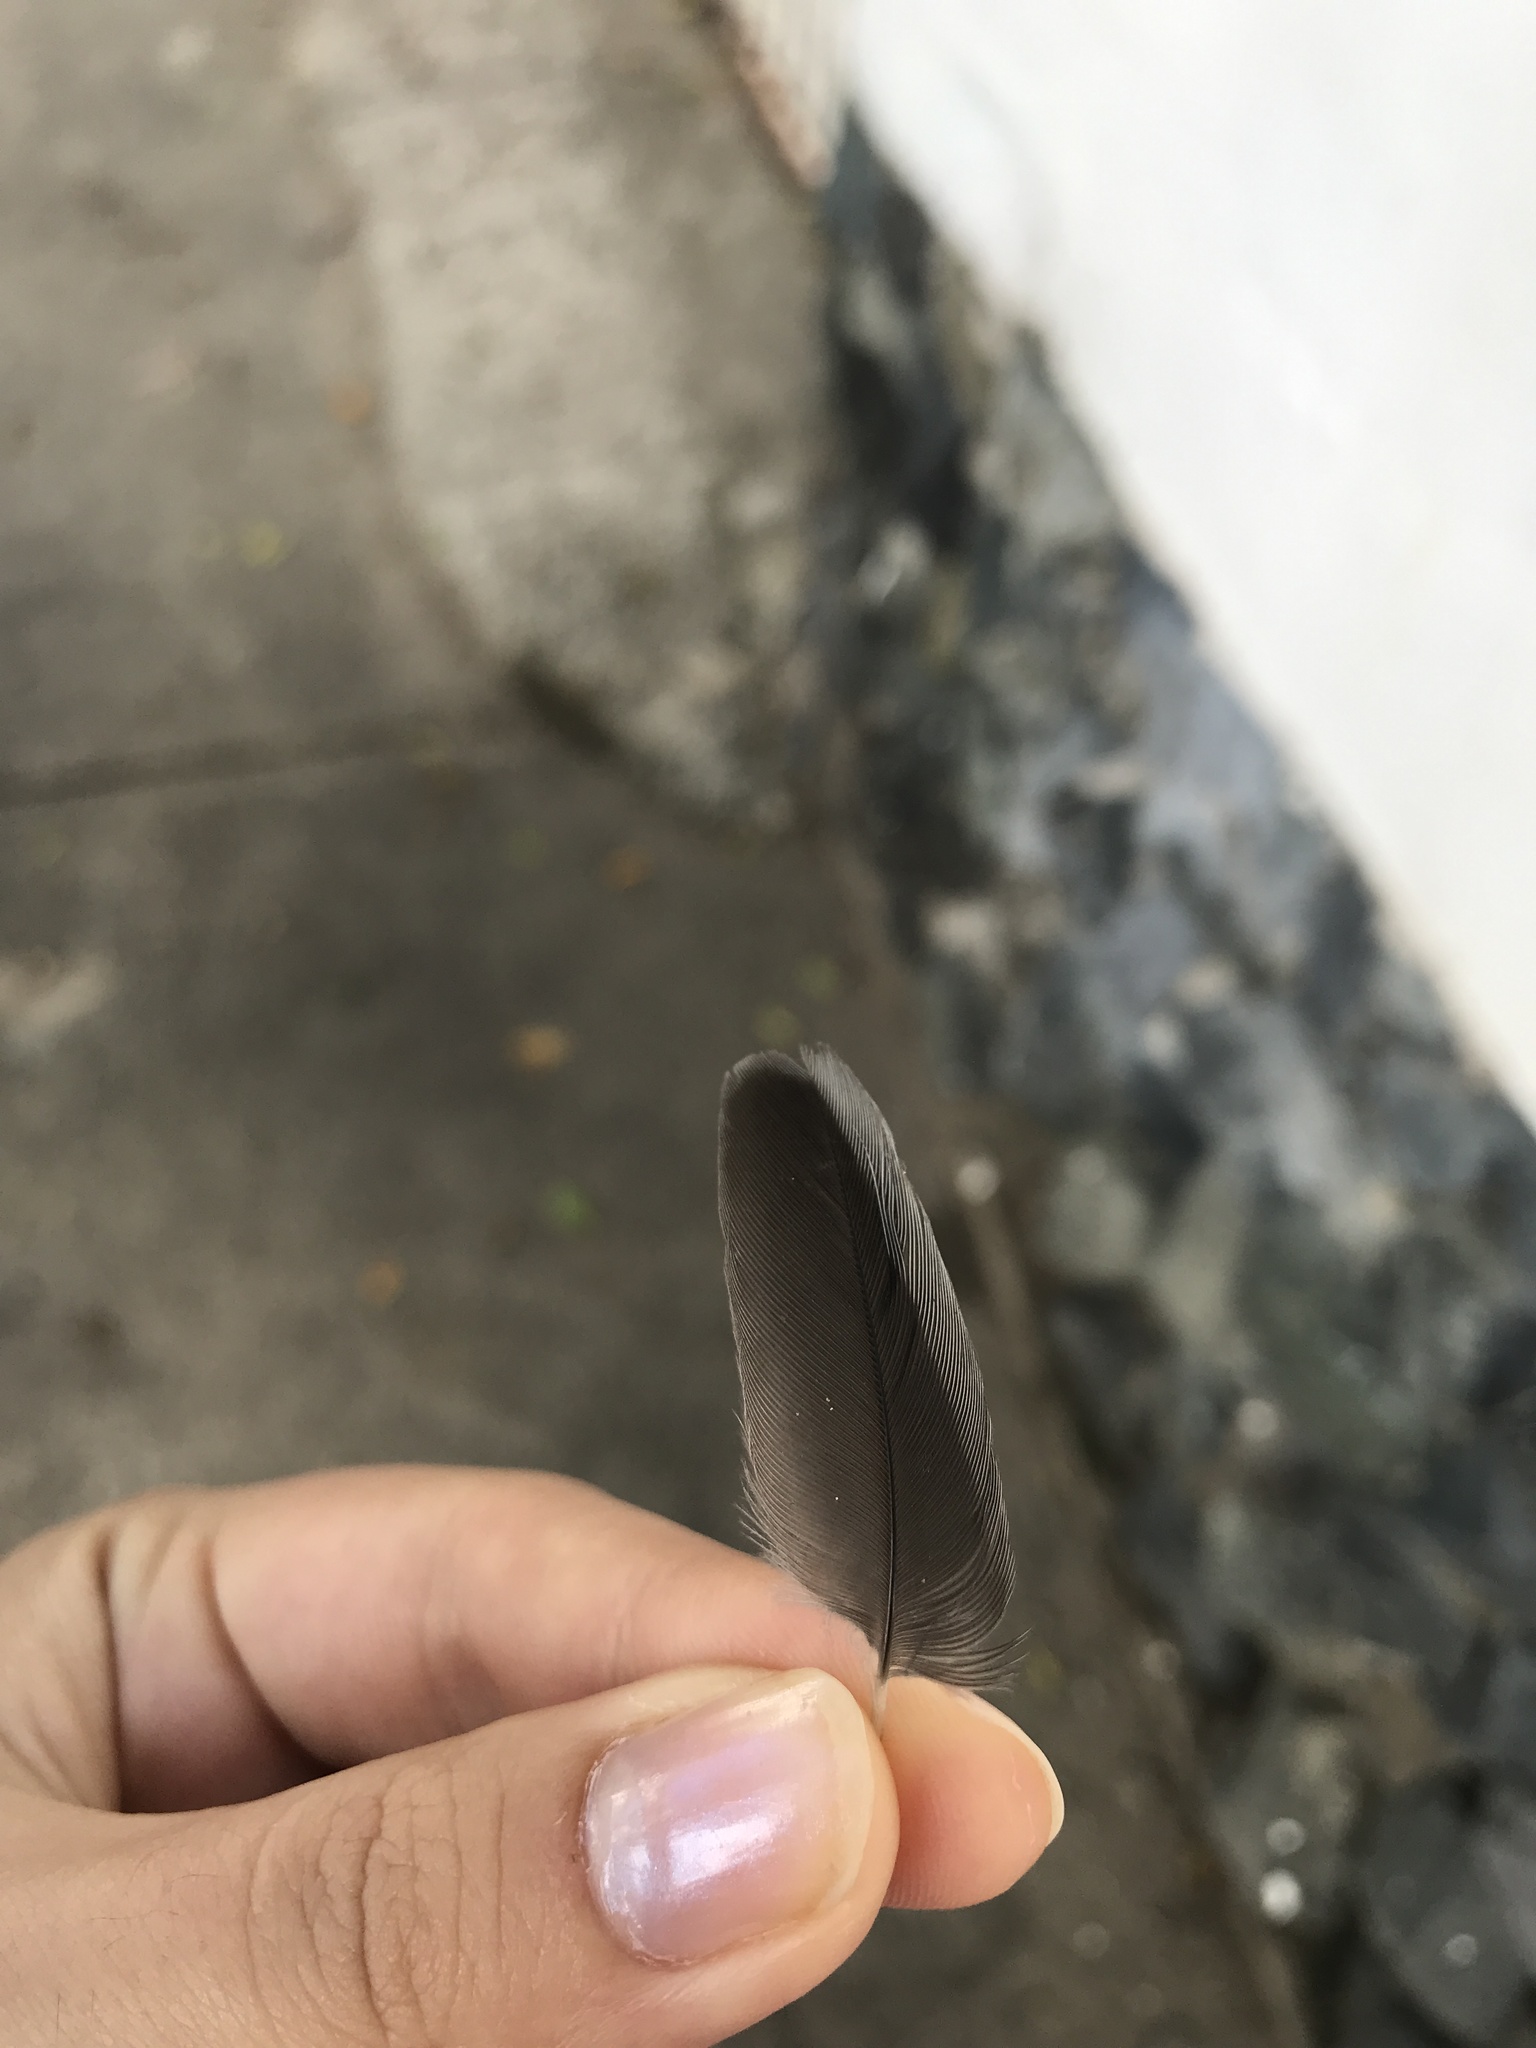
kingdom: Animalia
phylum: Chordata
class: Aves
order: Passeriformes
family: Turdidae
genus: Turdus
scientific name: Turdus plumbeus
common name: Red-legged thrush
